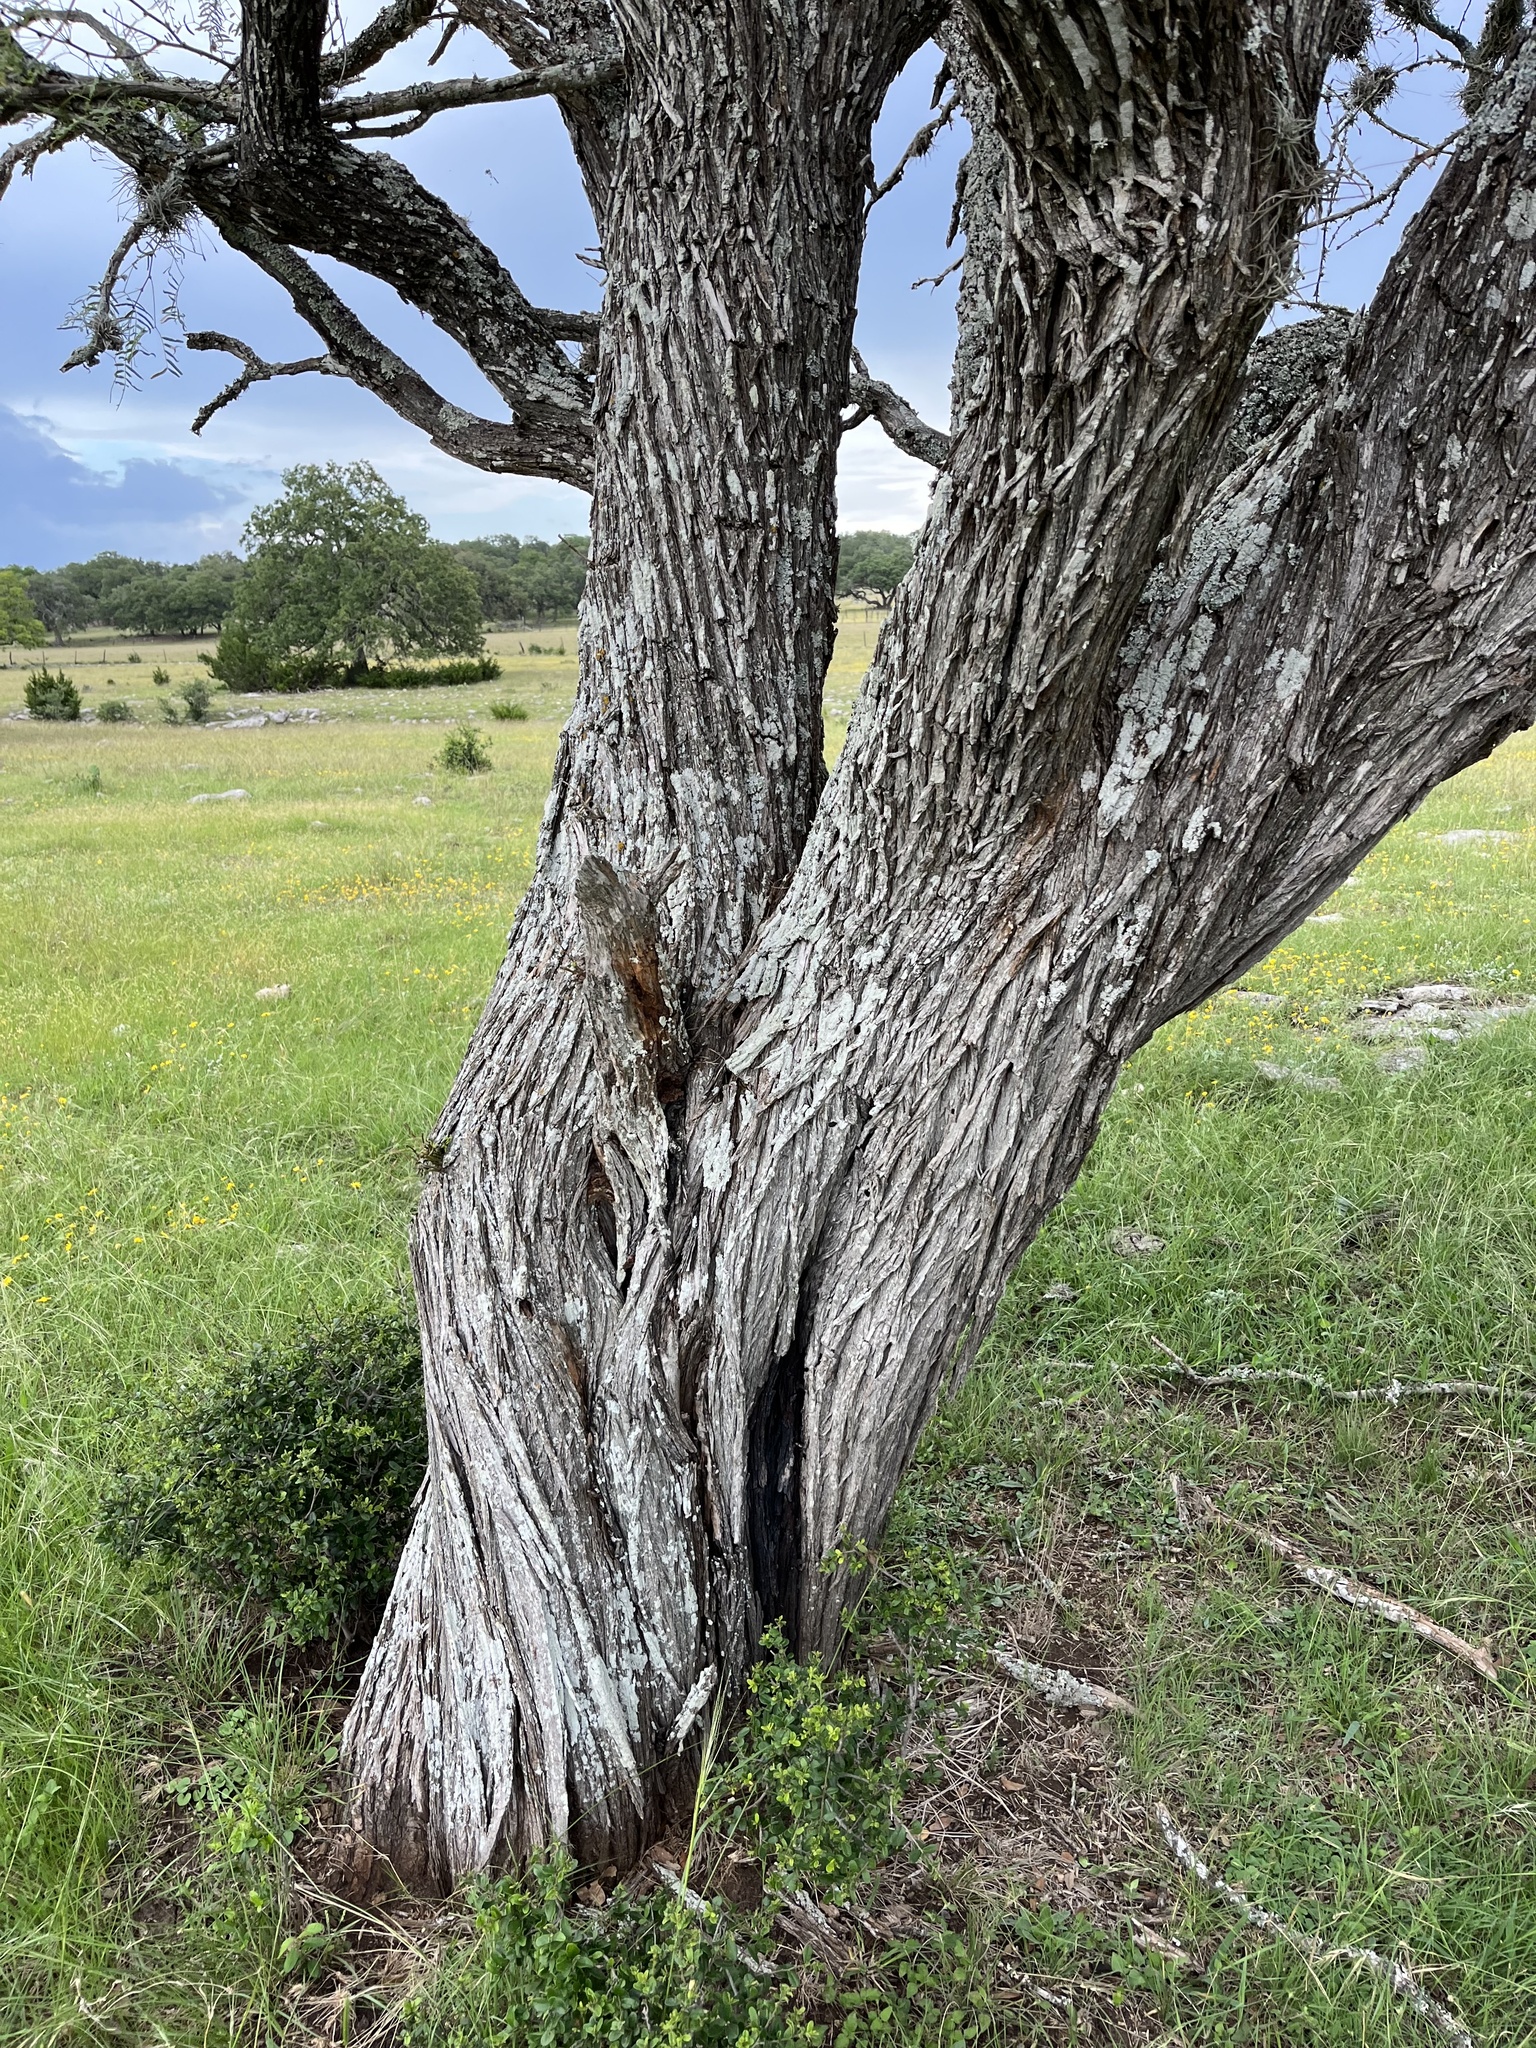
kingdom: Plantae
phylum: Tracheophyta
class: Magnoliopsida
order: Fabales
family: Fabaceae
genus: Prosopis
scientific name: Prosopis glandulosa
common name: Honey mesquite
